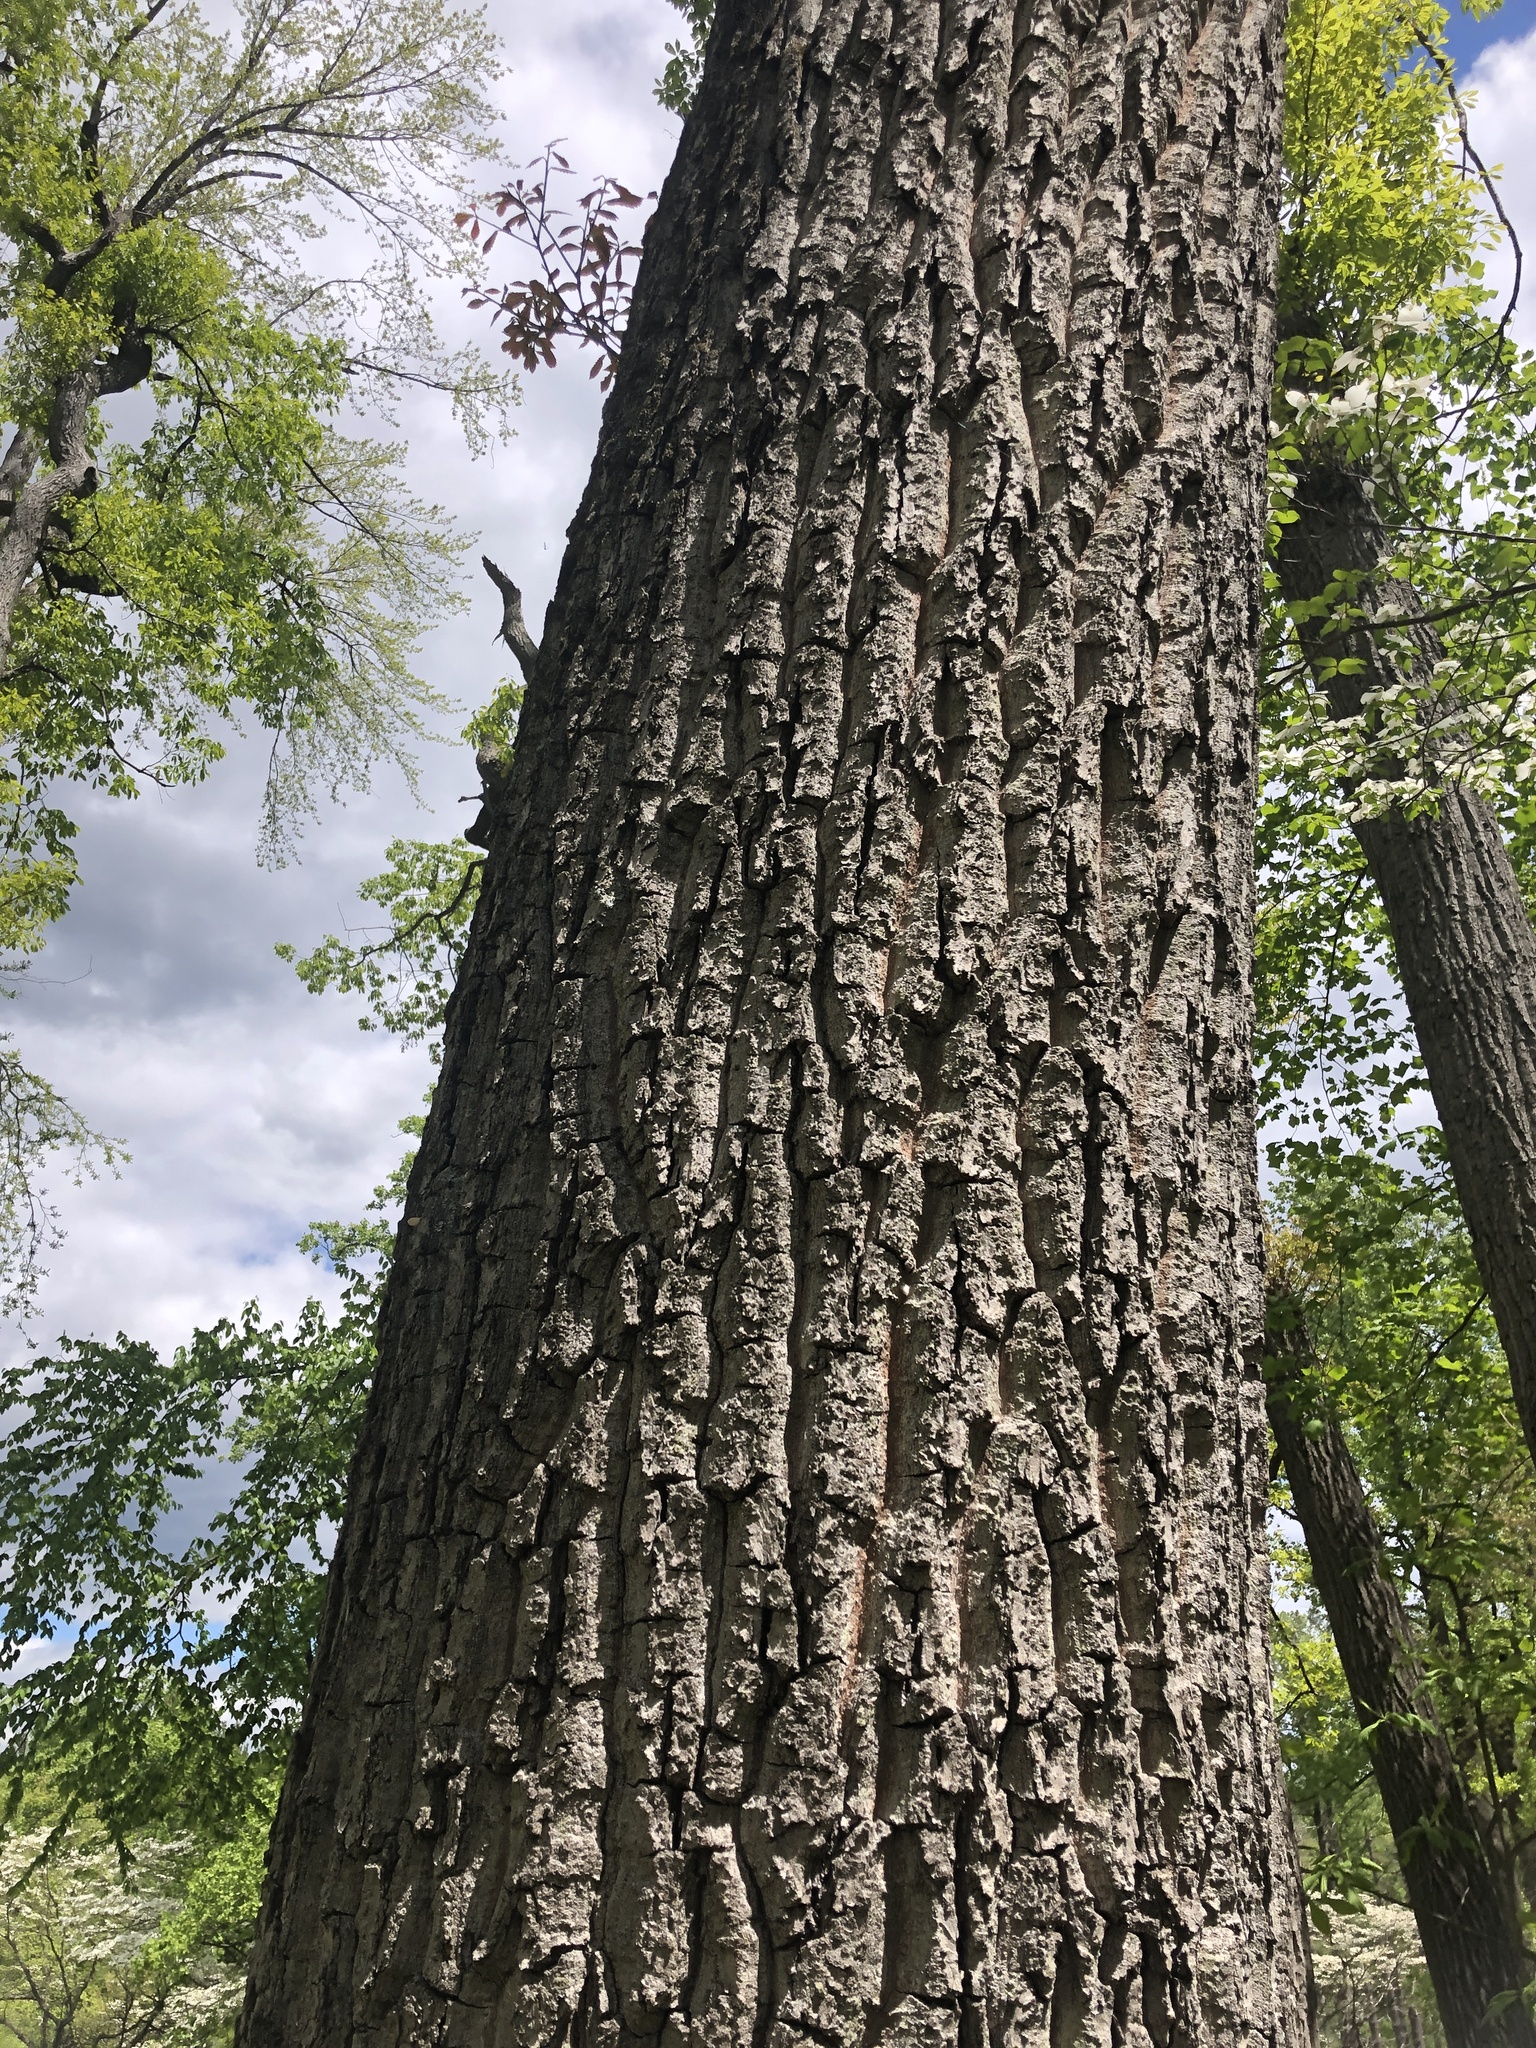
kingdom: Plantae
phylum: Tracheophyta
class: Magnoliopsida
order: Fagales
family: Fagaceae
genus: Quercus
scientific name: Quercus montana
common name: Chestnut oak
